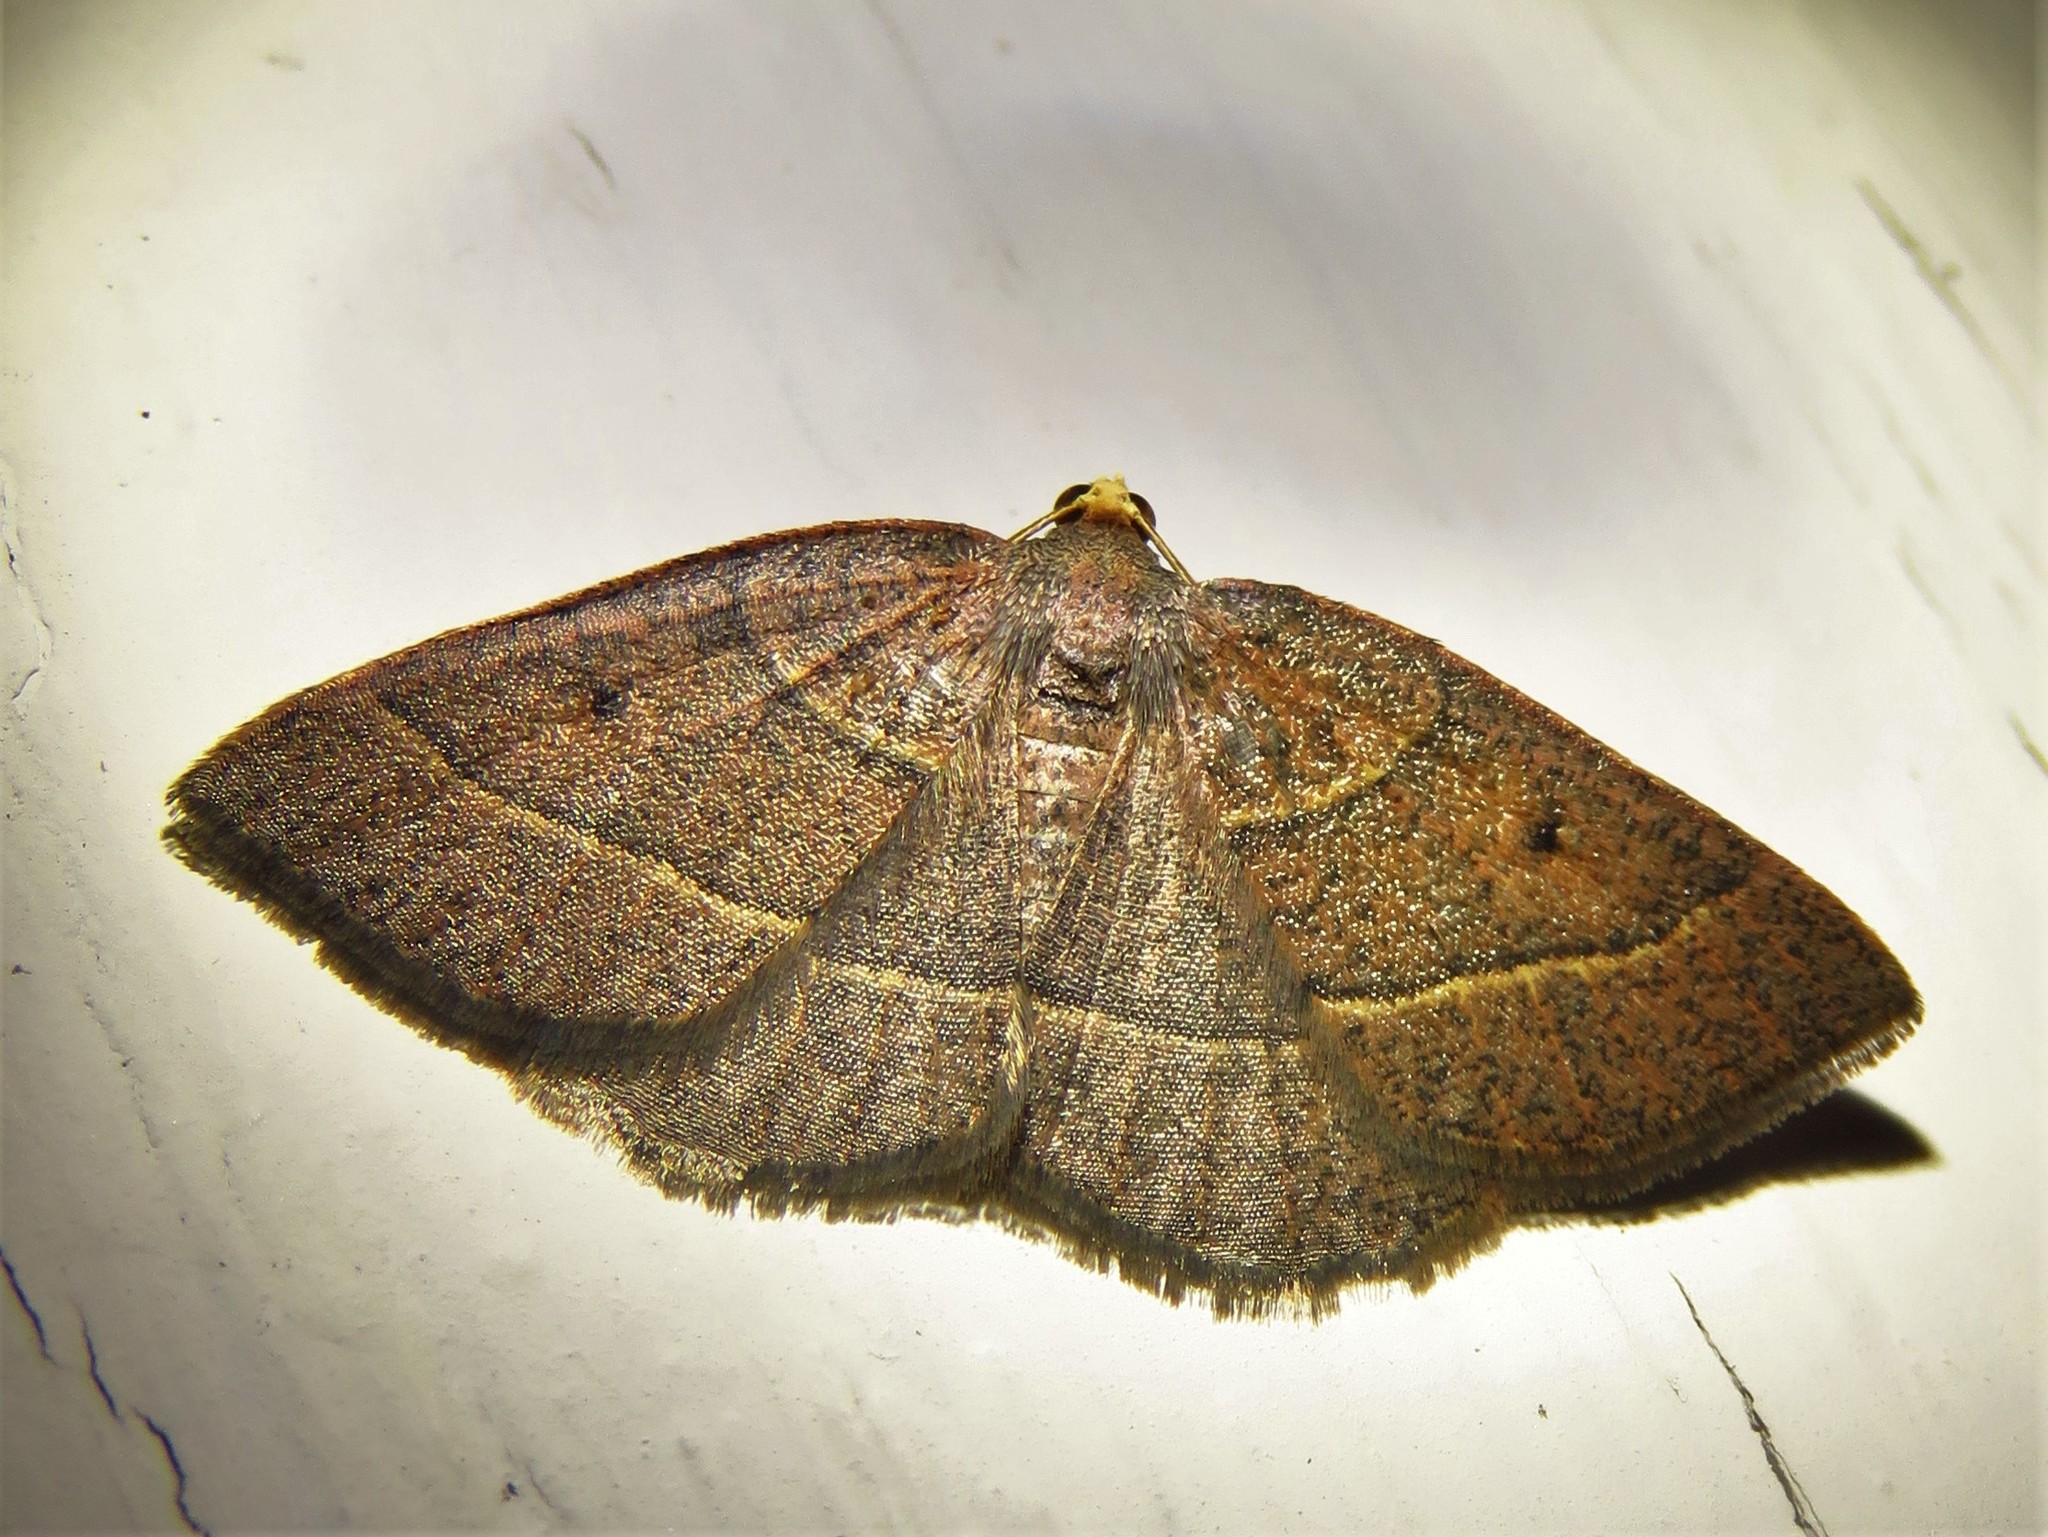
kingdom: Animalia
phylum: Arthropoda
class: Insecta
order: Lepidoptera
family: Geometridae
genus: Episemasia
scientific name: Episemasia cervinaria
